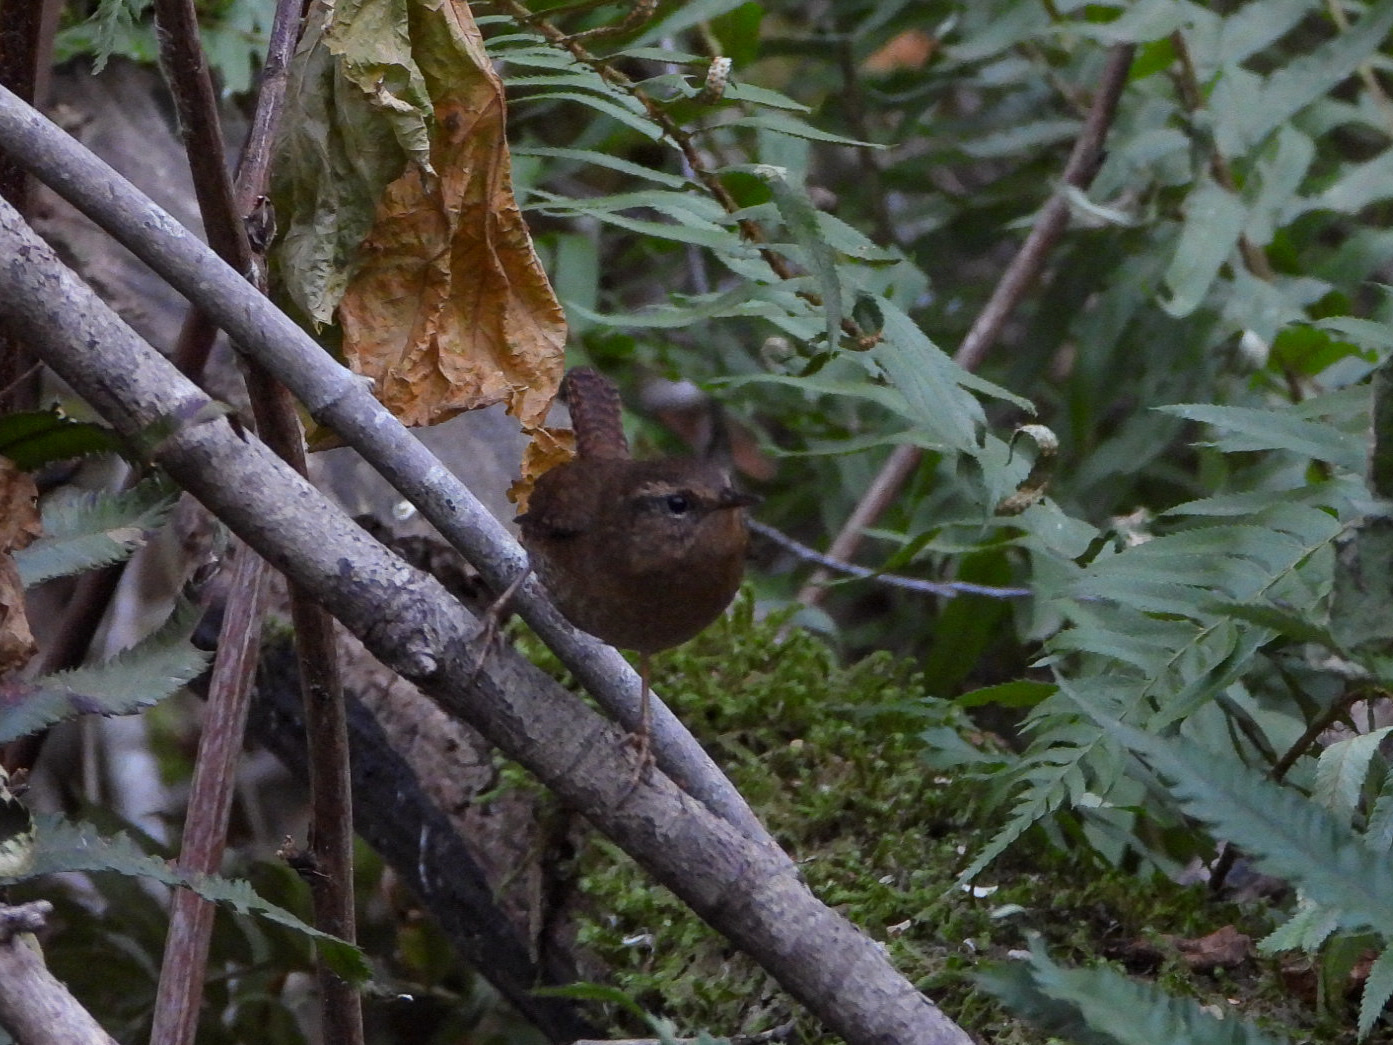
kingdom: Animalia
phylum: Chordata
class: Aves
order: Passeriformes
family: Troglodytidae
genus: Troglodytes
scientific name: Troglodytes pacificus
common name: Pacific wren
